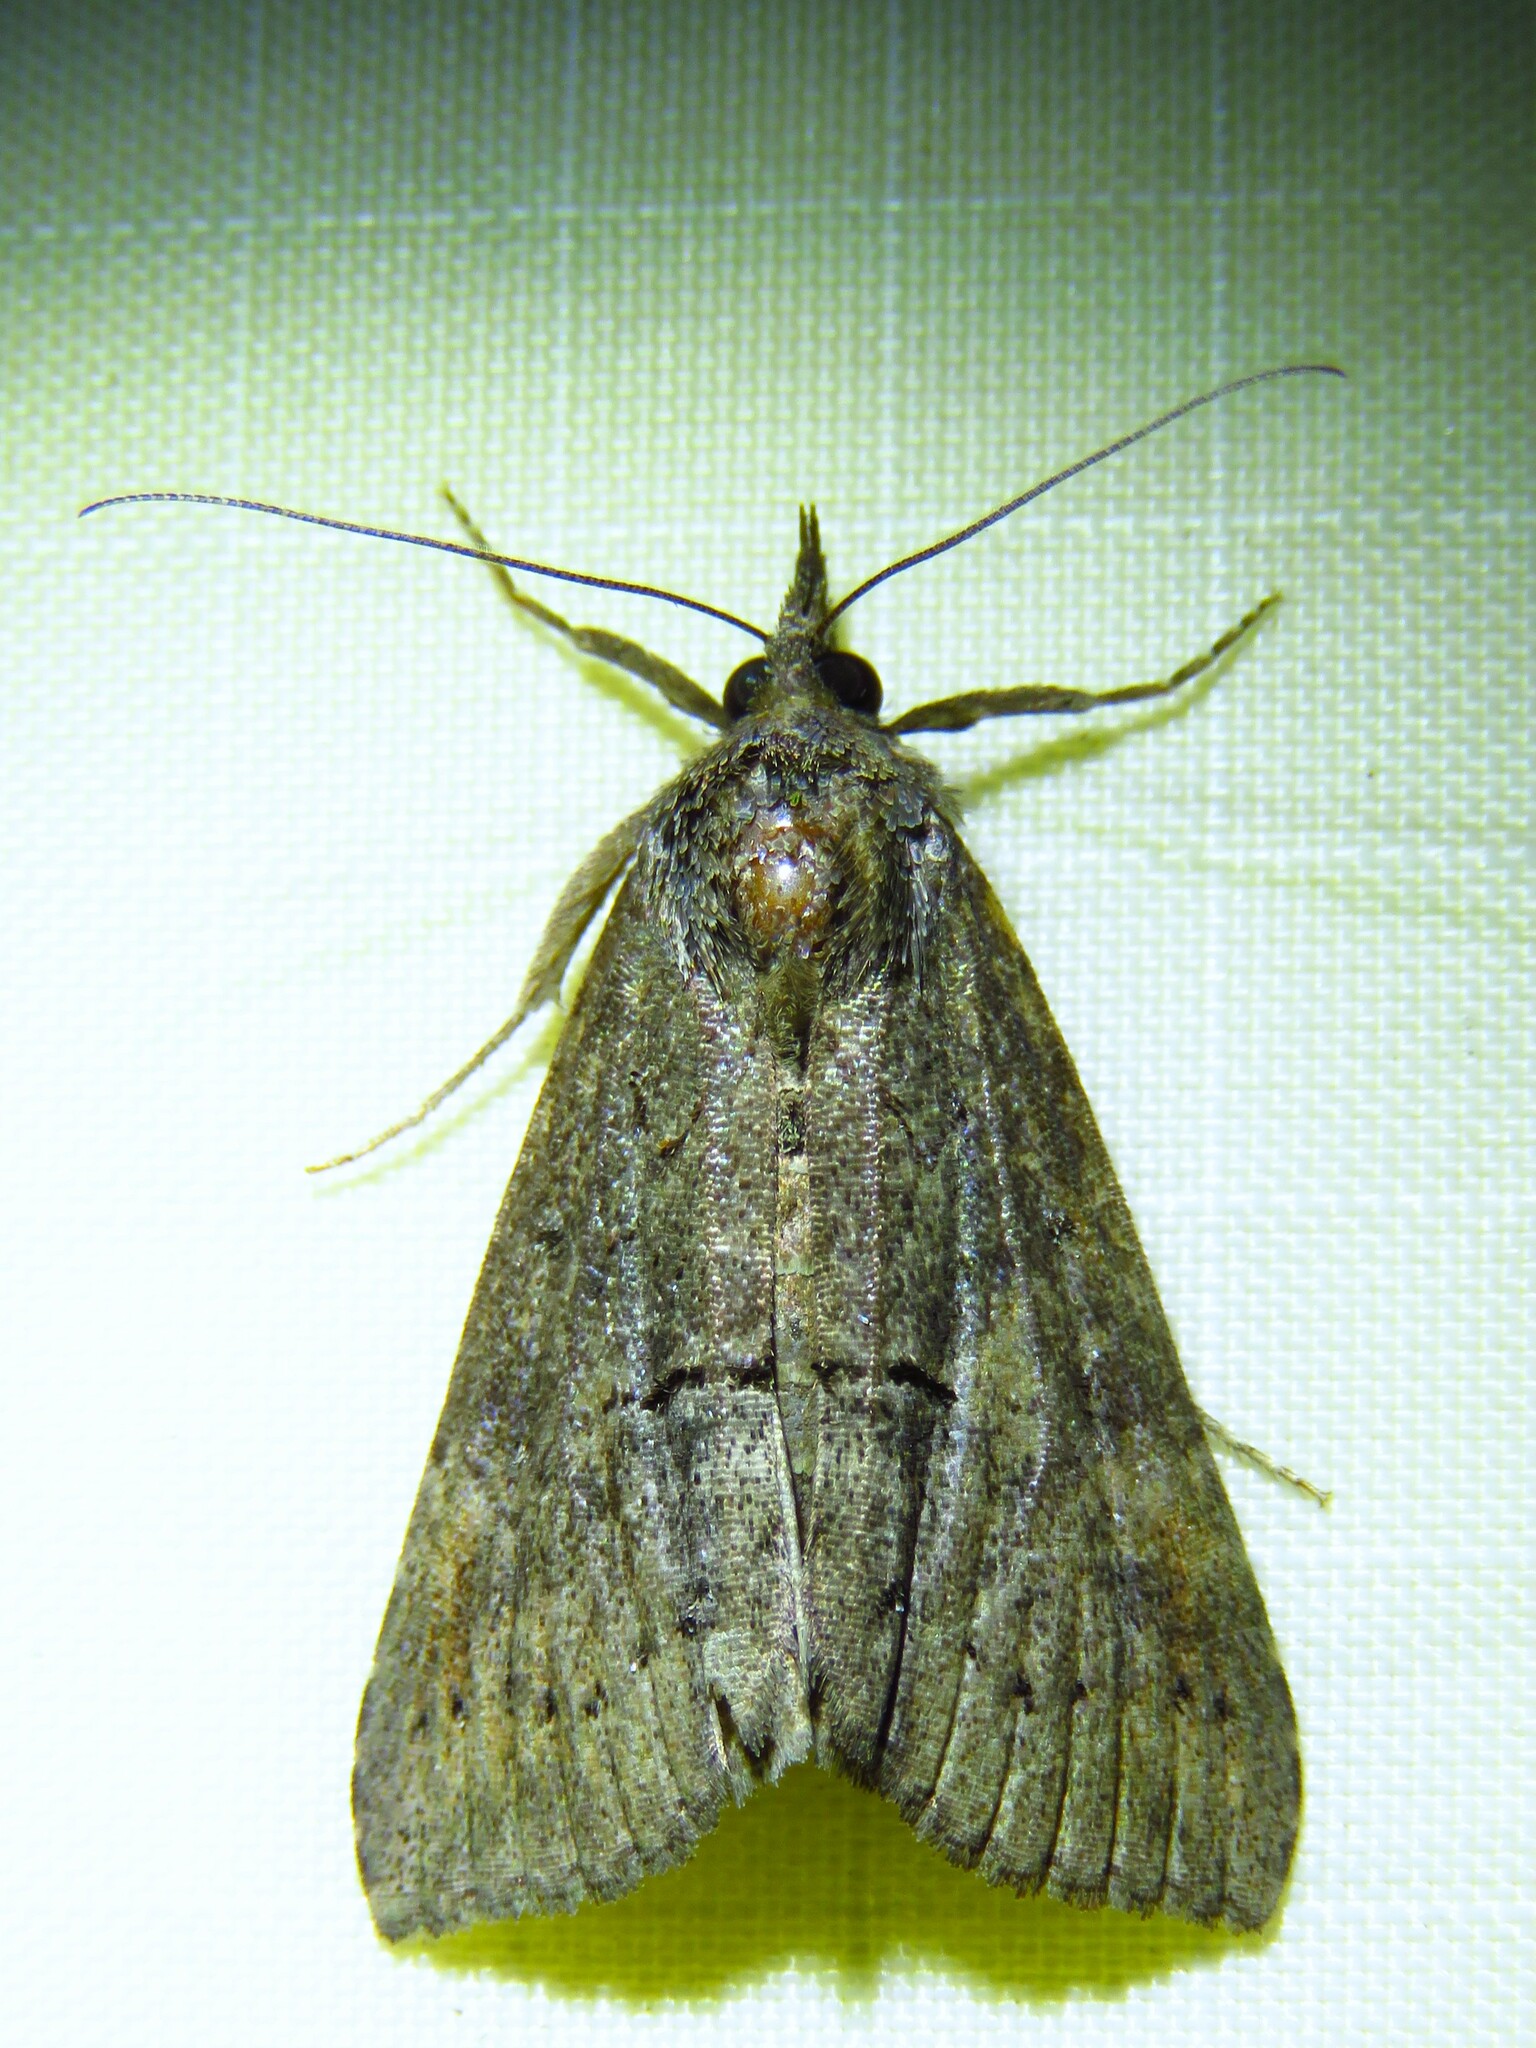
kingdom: Animalia
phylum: Arthropoda
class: Insecta
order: Lepidoptera
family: Erebidae
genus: Hypena
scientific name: Hypena scabra
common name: Green cloverworm
